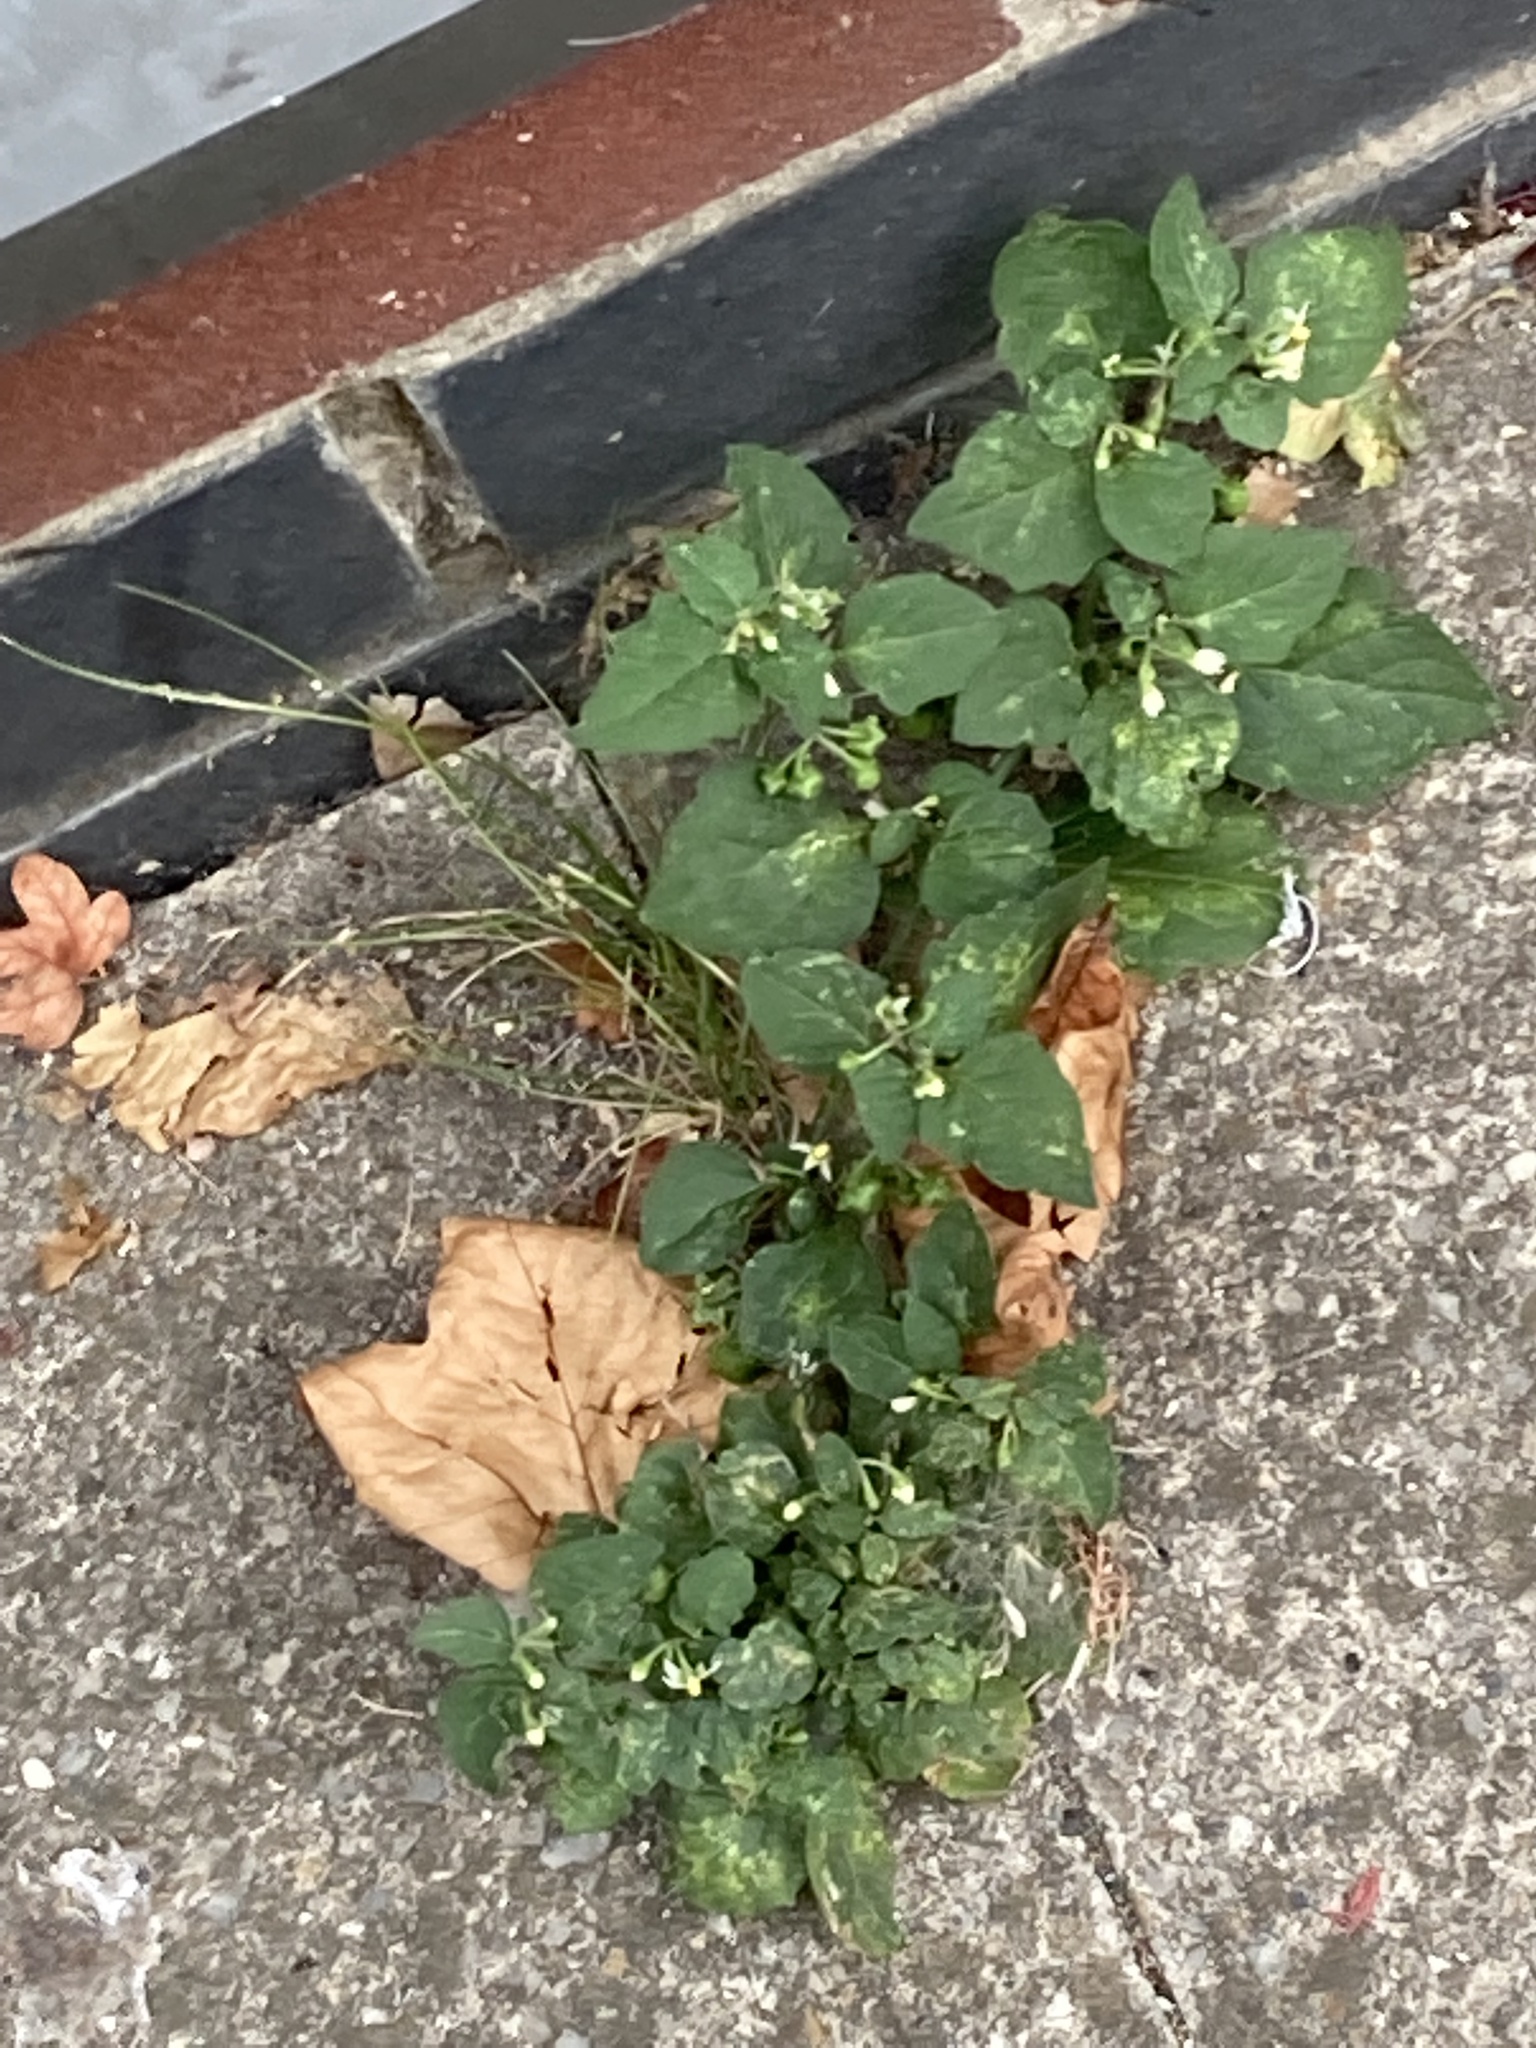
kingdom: Plantae
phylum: Tracheophyta
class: Magnoliopsida
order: Solanales
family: Solanaceae
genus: Solanum
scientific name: Solanum nigrum
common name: Black nightshade
